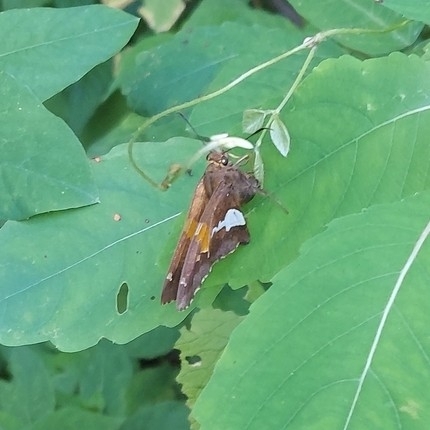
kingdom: Animalia
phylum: Arthropoda
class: Insecta
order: Lepidoptera
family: Hesperiidae
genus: Epargyreus
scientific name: Epargyreus clarus
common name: Silver-spotted skipper
